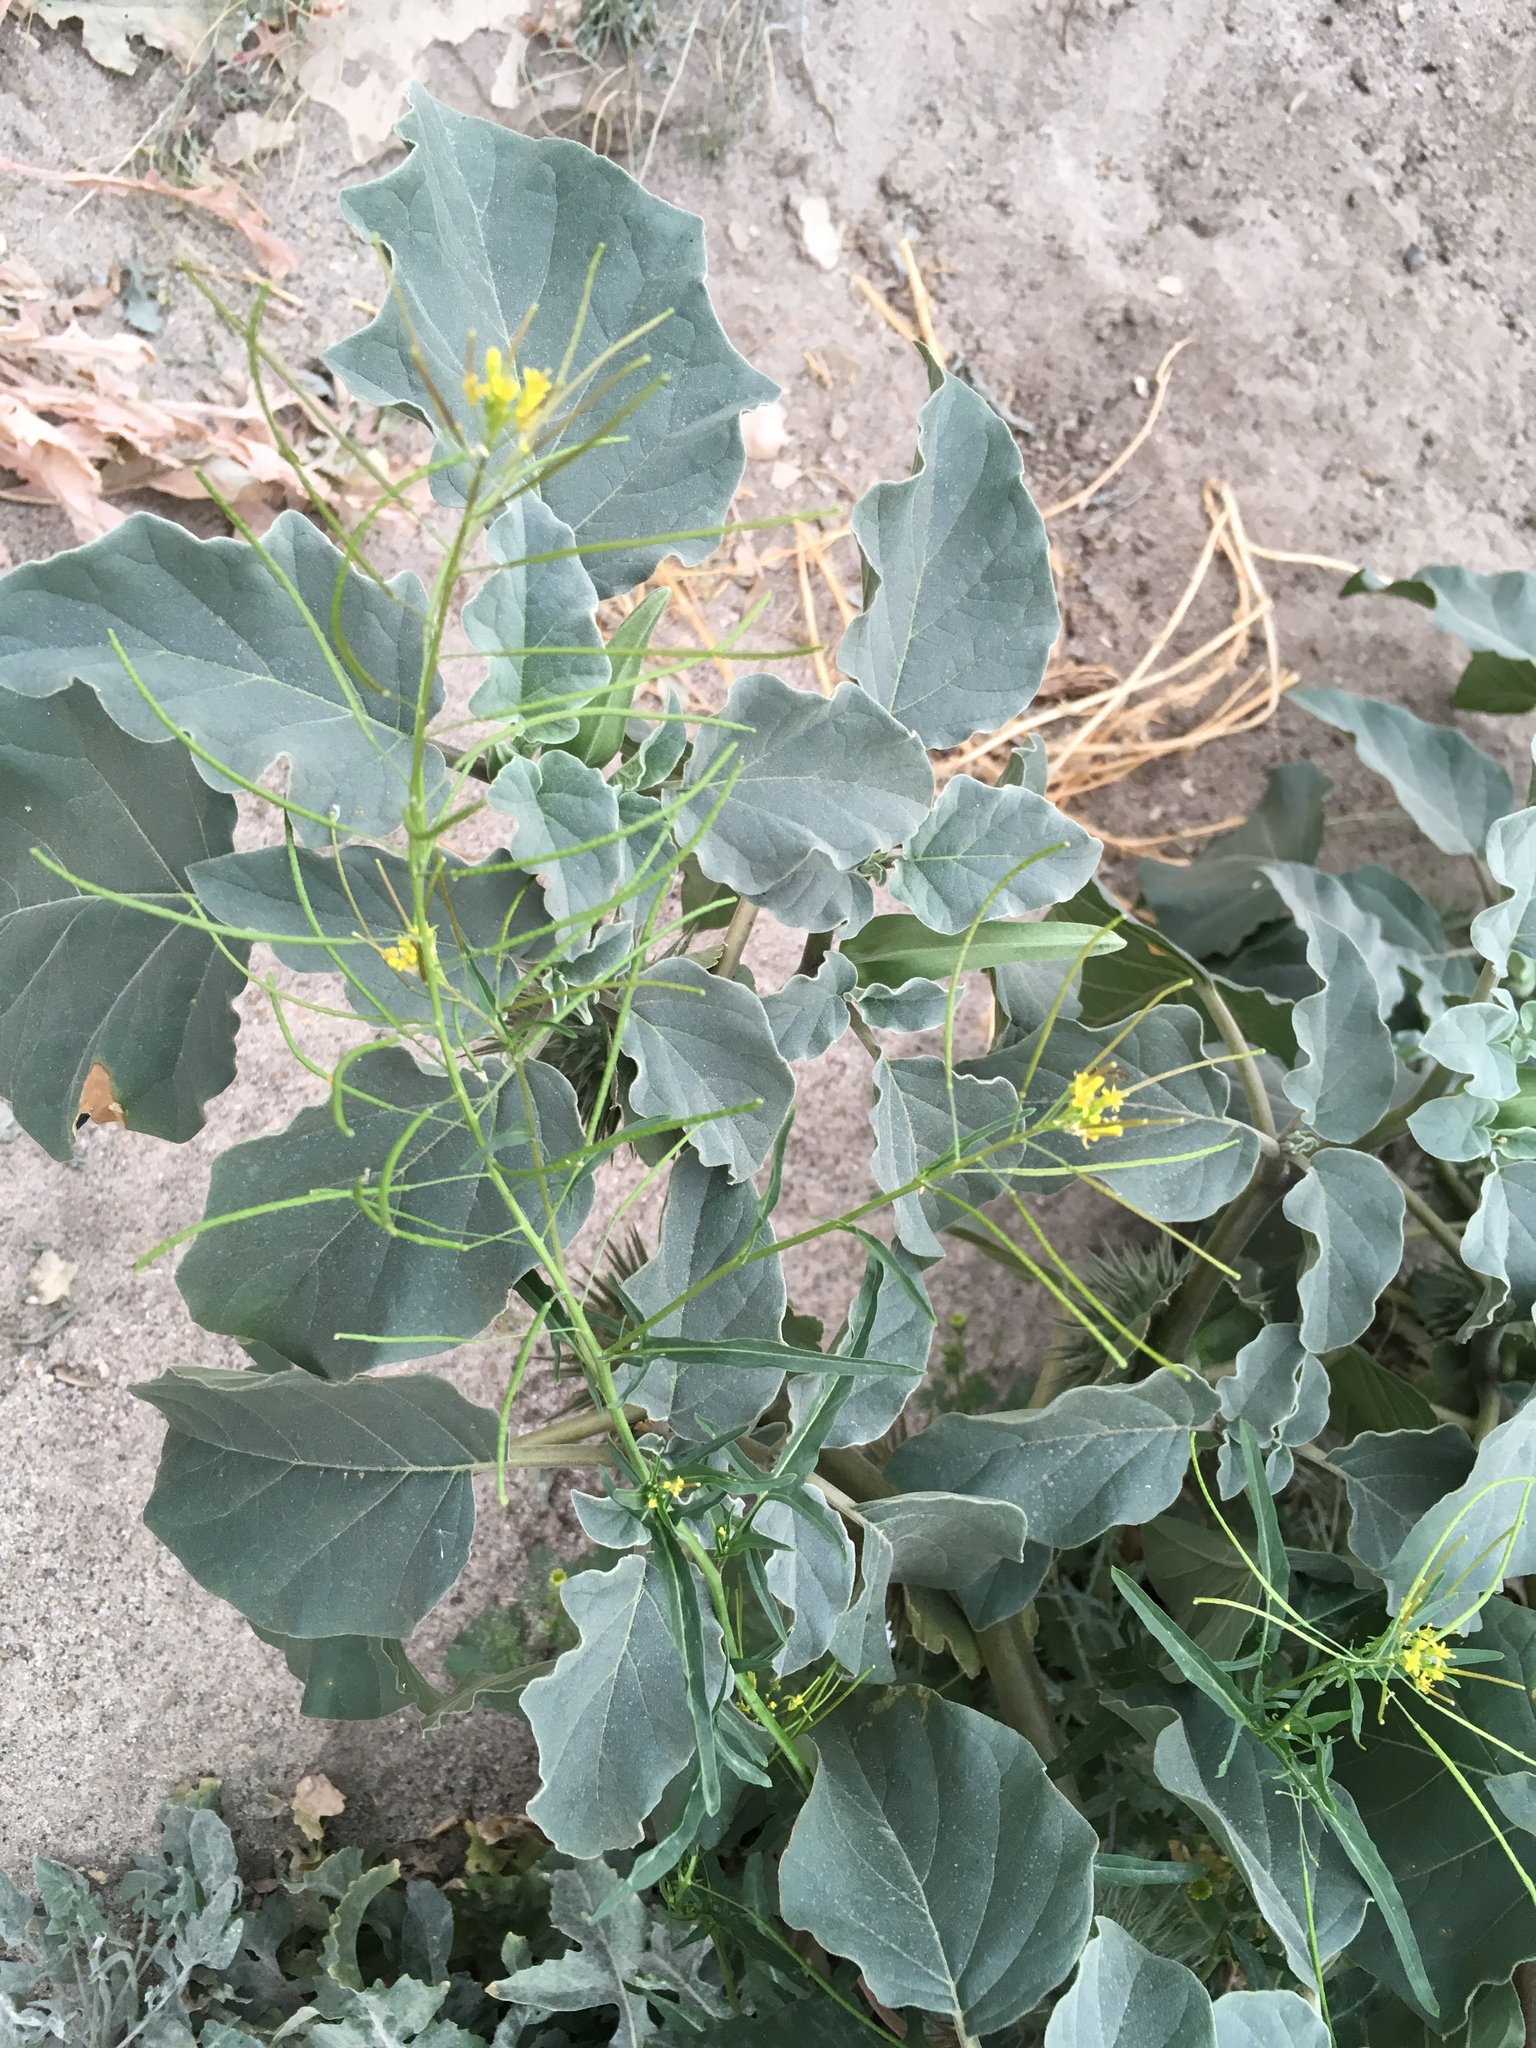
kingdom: Plantae
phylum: Tracheophyta
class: Magnoliopsida
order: Brassicales
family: Brassicaceae
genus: Sisymbrium
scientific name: Sisymbrium irio
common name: London rocket
